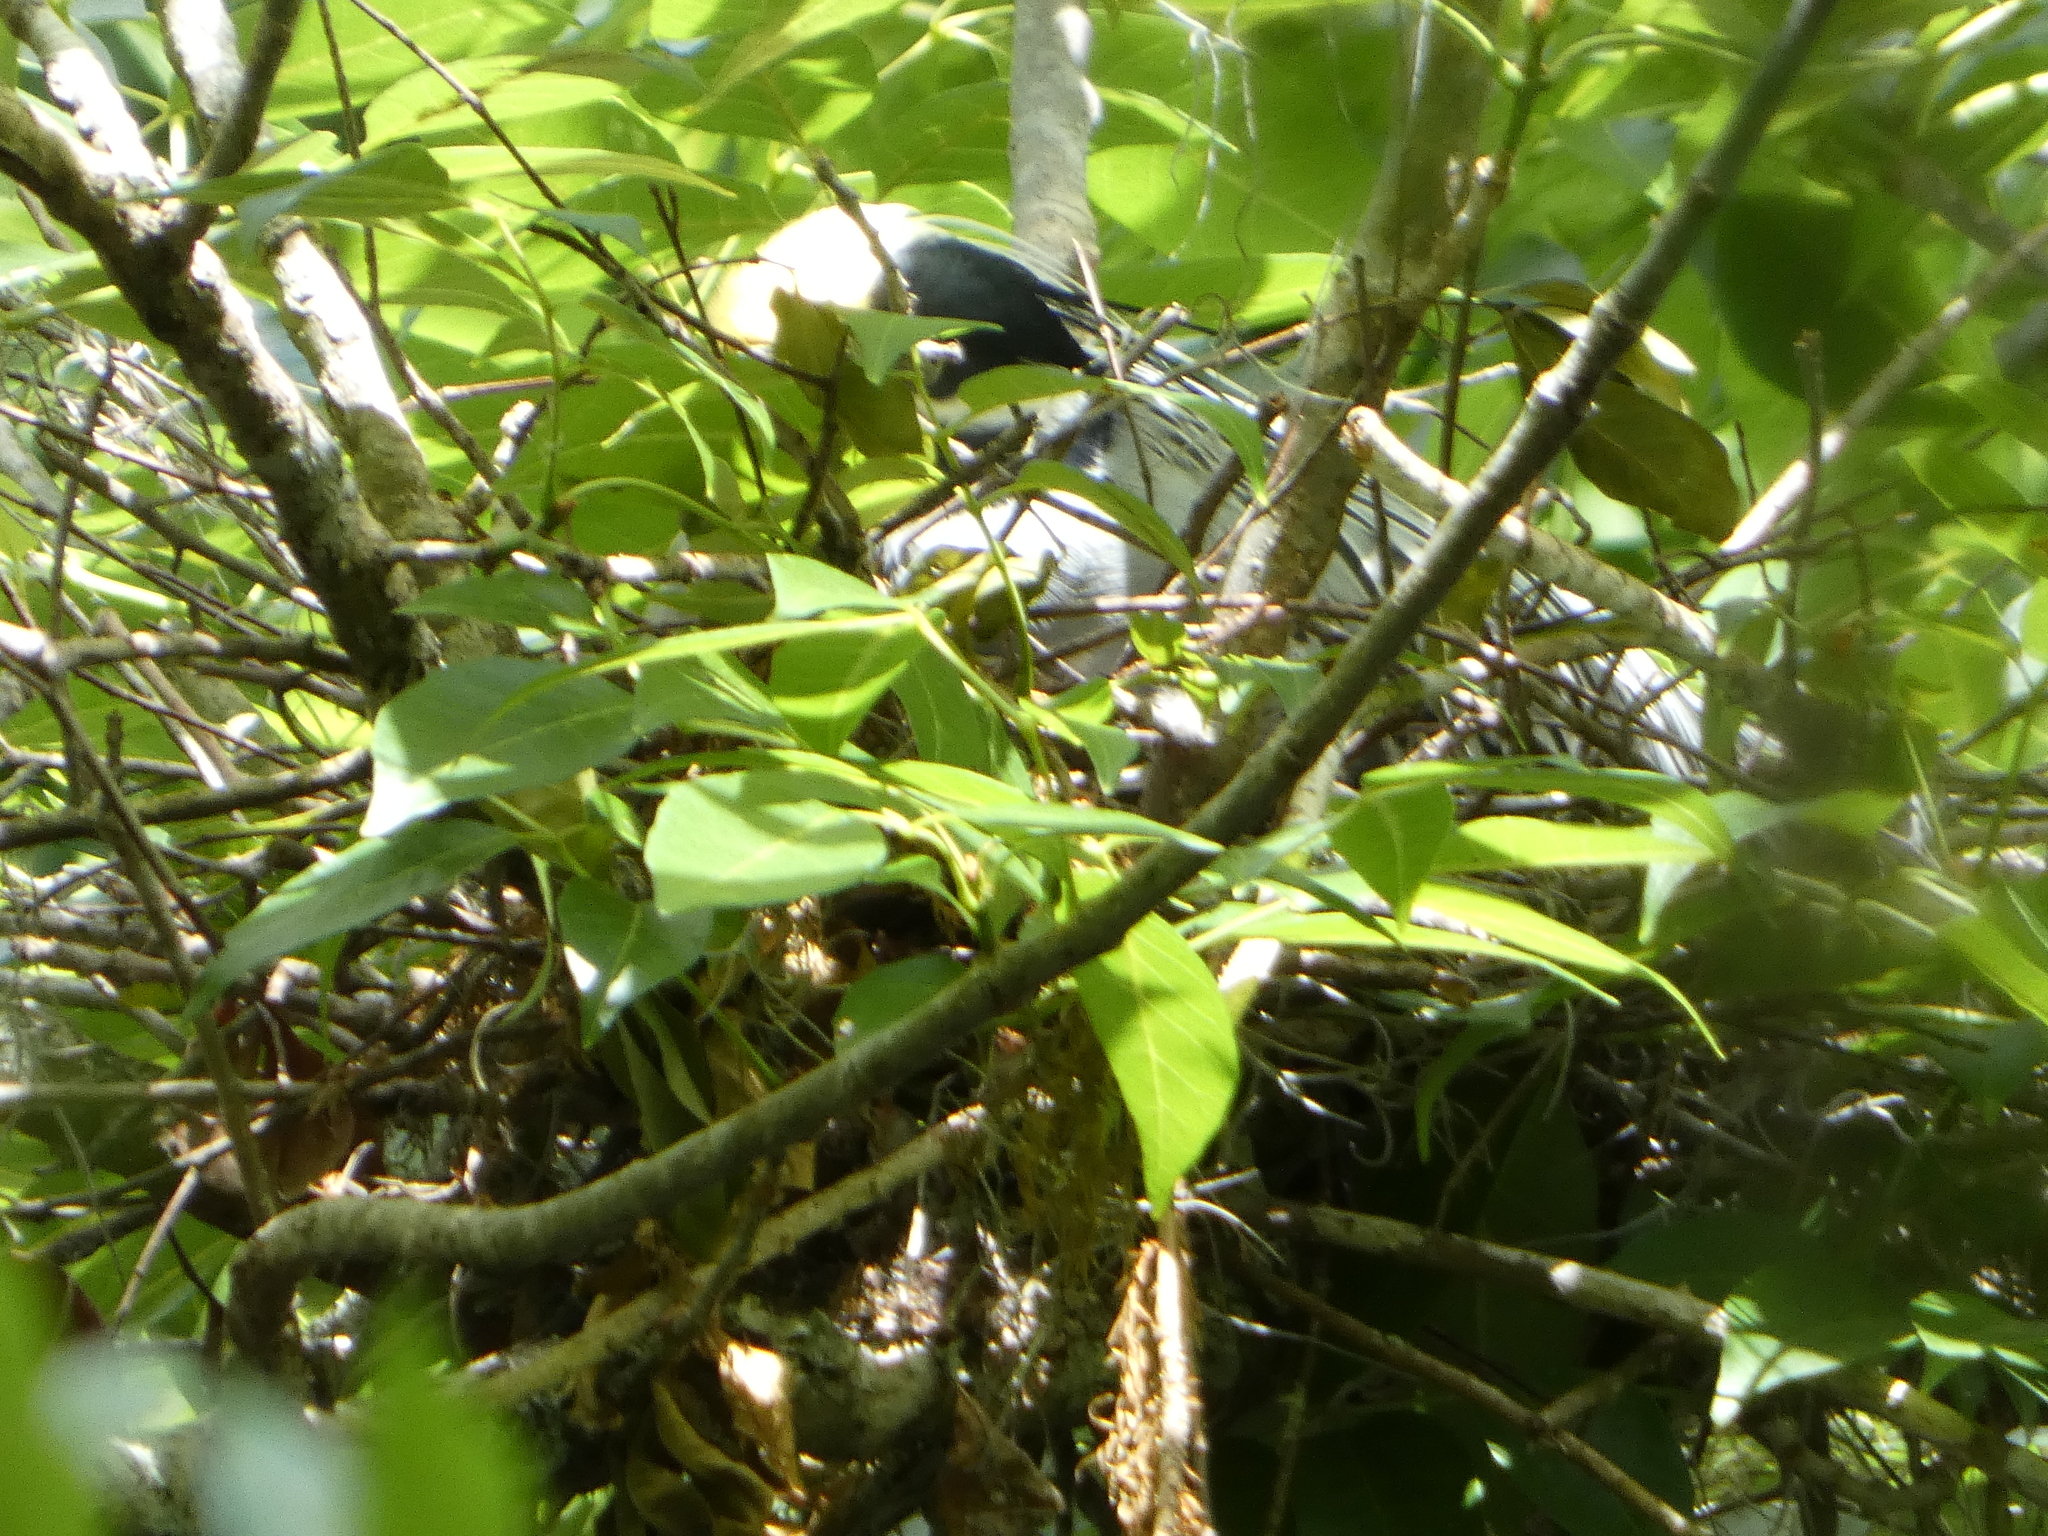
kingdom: Animalia
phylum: Chordata
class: Aves
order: Pelecaniformes
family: Ardeidae
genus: Nyctanassa
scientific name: Nyctanassa violacea
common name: Yellow-crowned night heron
